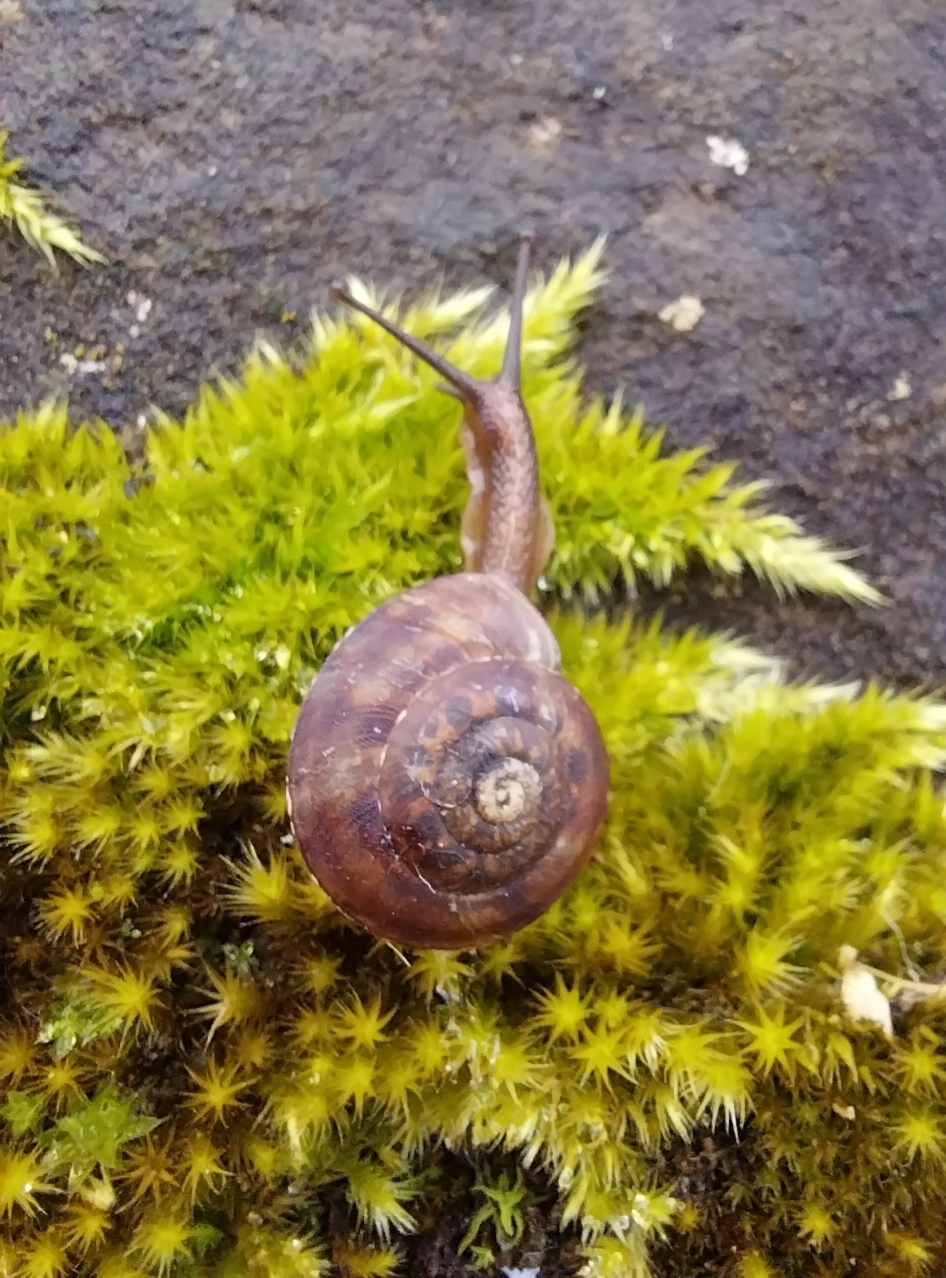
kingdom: Animalia
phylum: Mollusca
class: Gastropoda
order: Stylommatophora
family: Helicidae
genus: Helicigona
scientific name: Helicigona lapicida
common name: Lapidary snail
